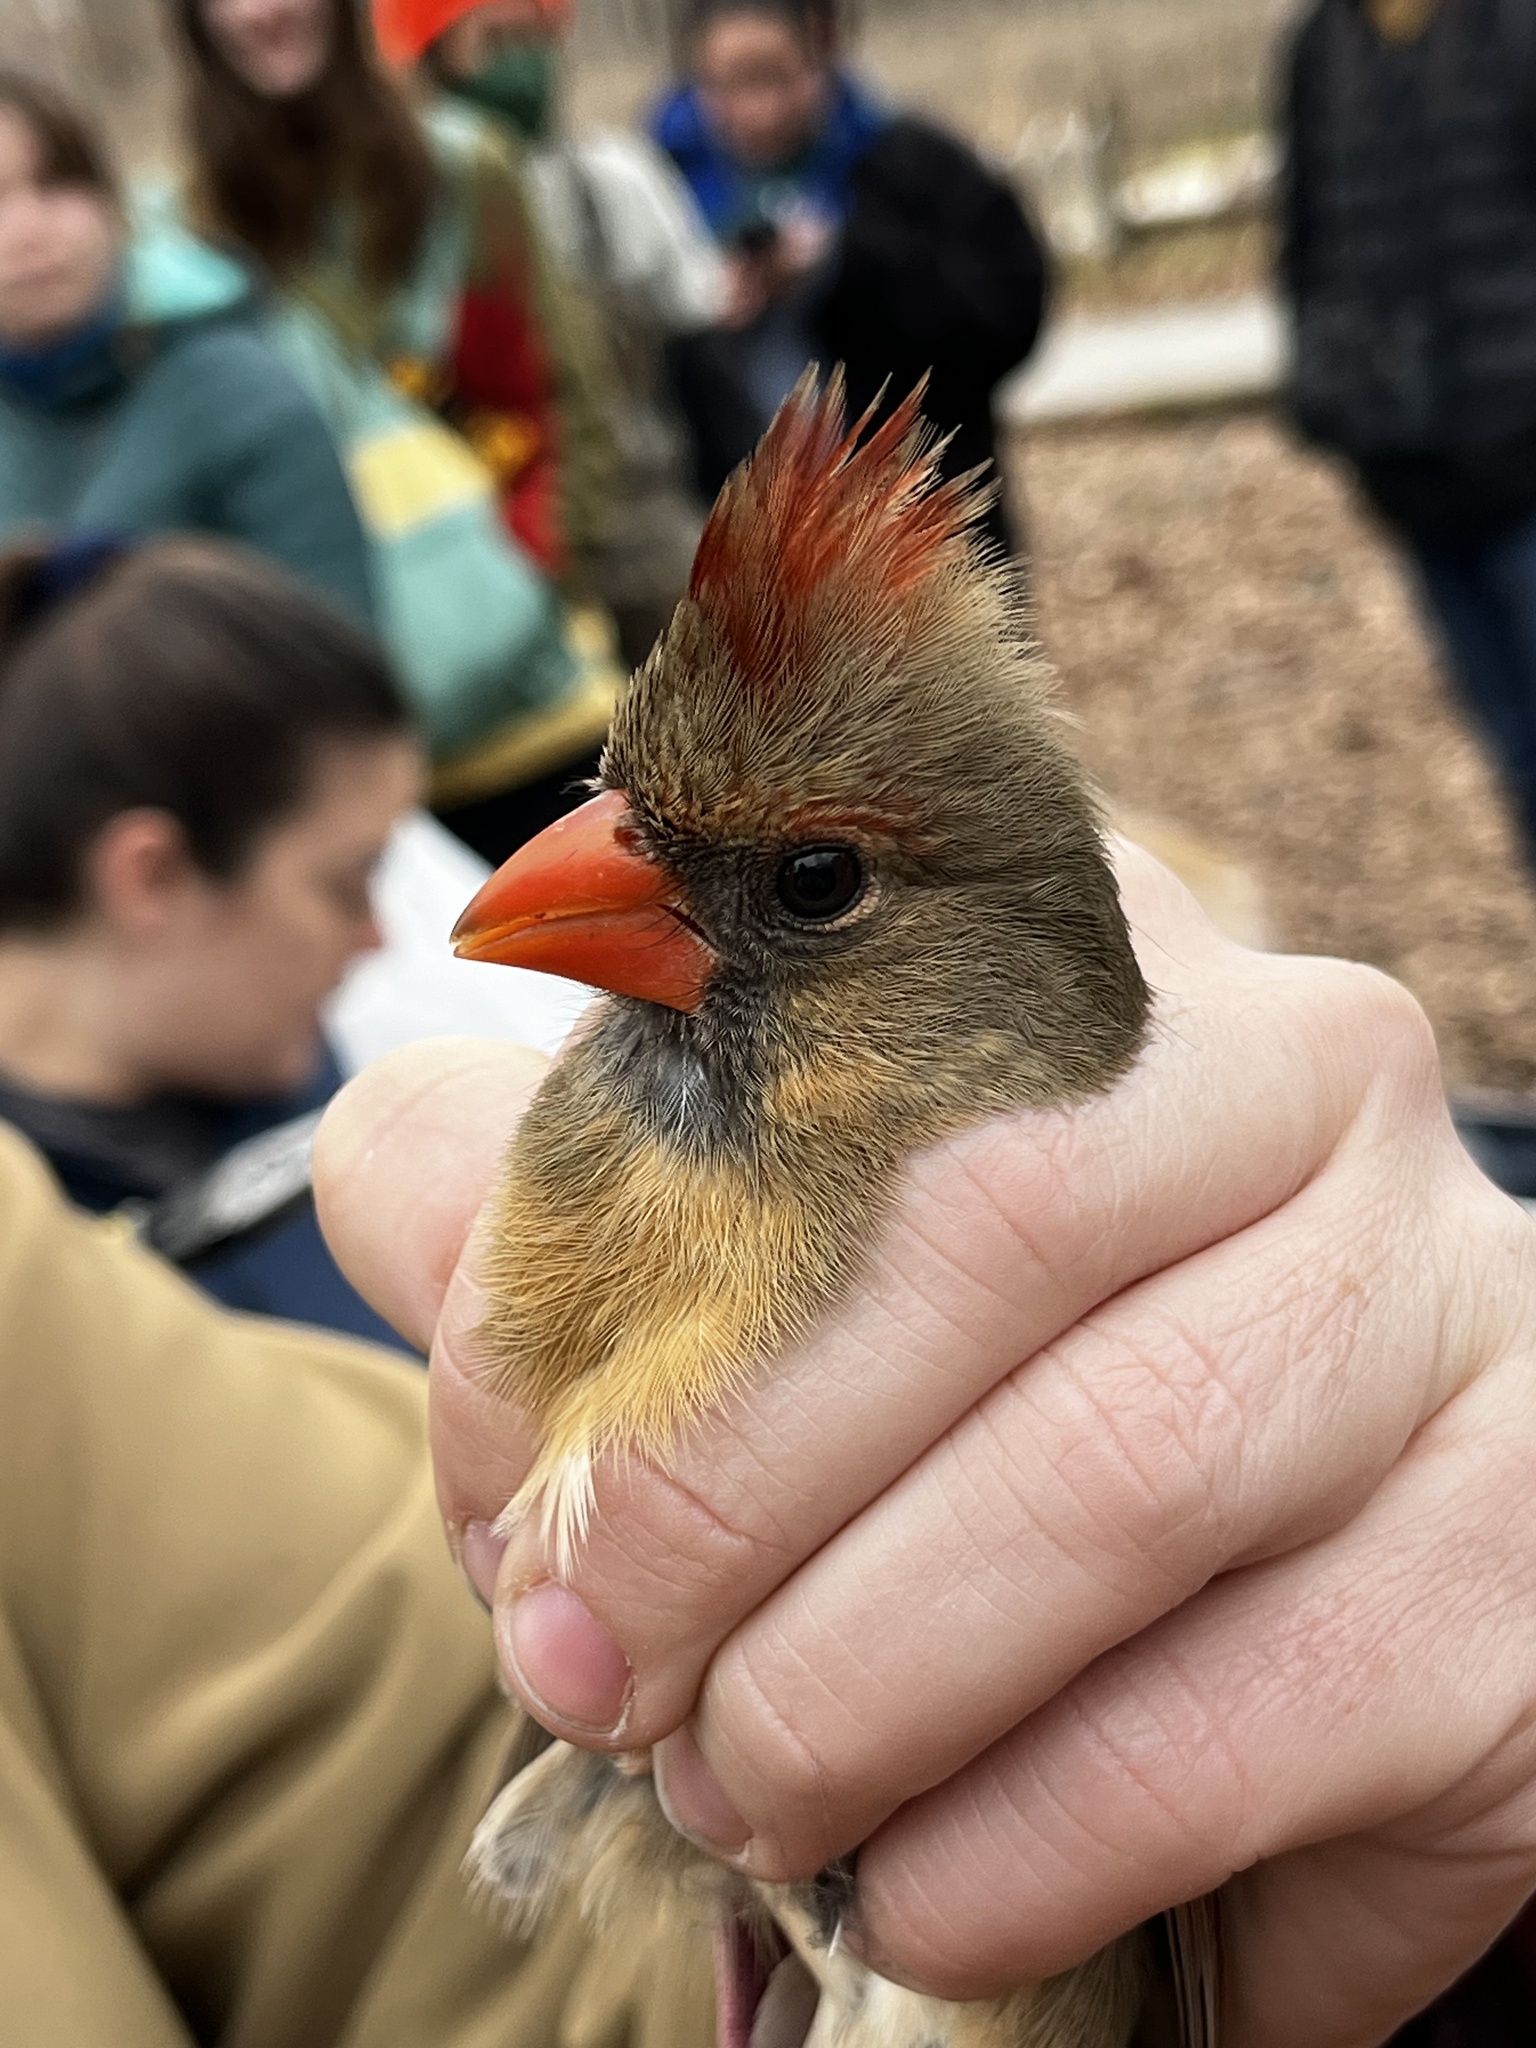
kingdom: Animalia
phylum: Chordata
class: Aves
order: Passeriformes
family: Cardinalidae
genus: Cardinalis
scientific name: Cardinalis cardinalis
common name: Northern cardinal
